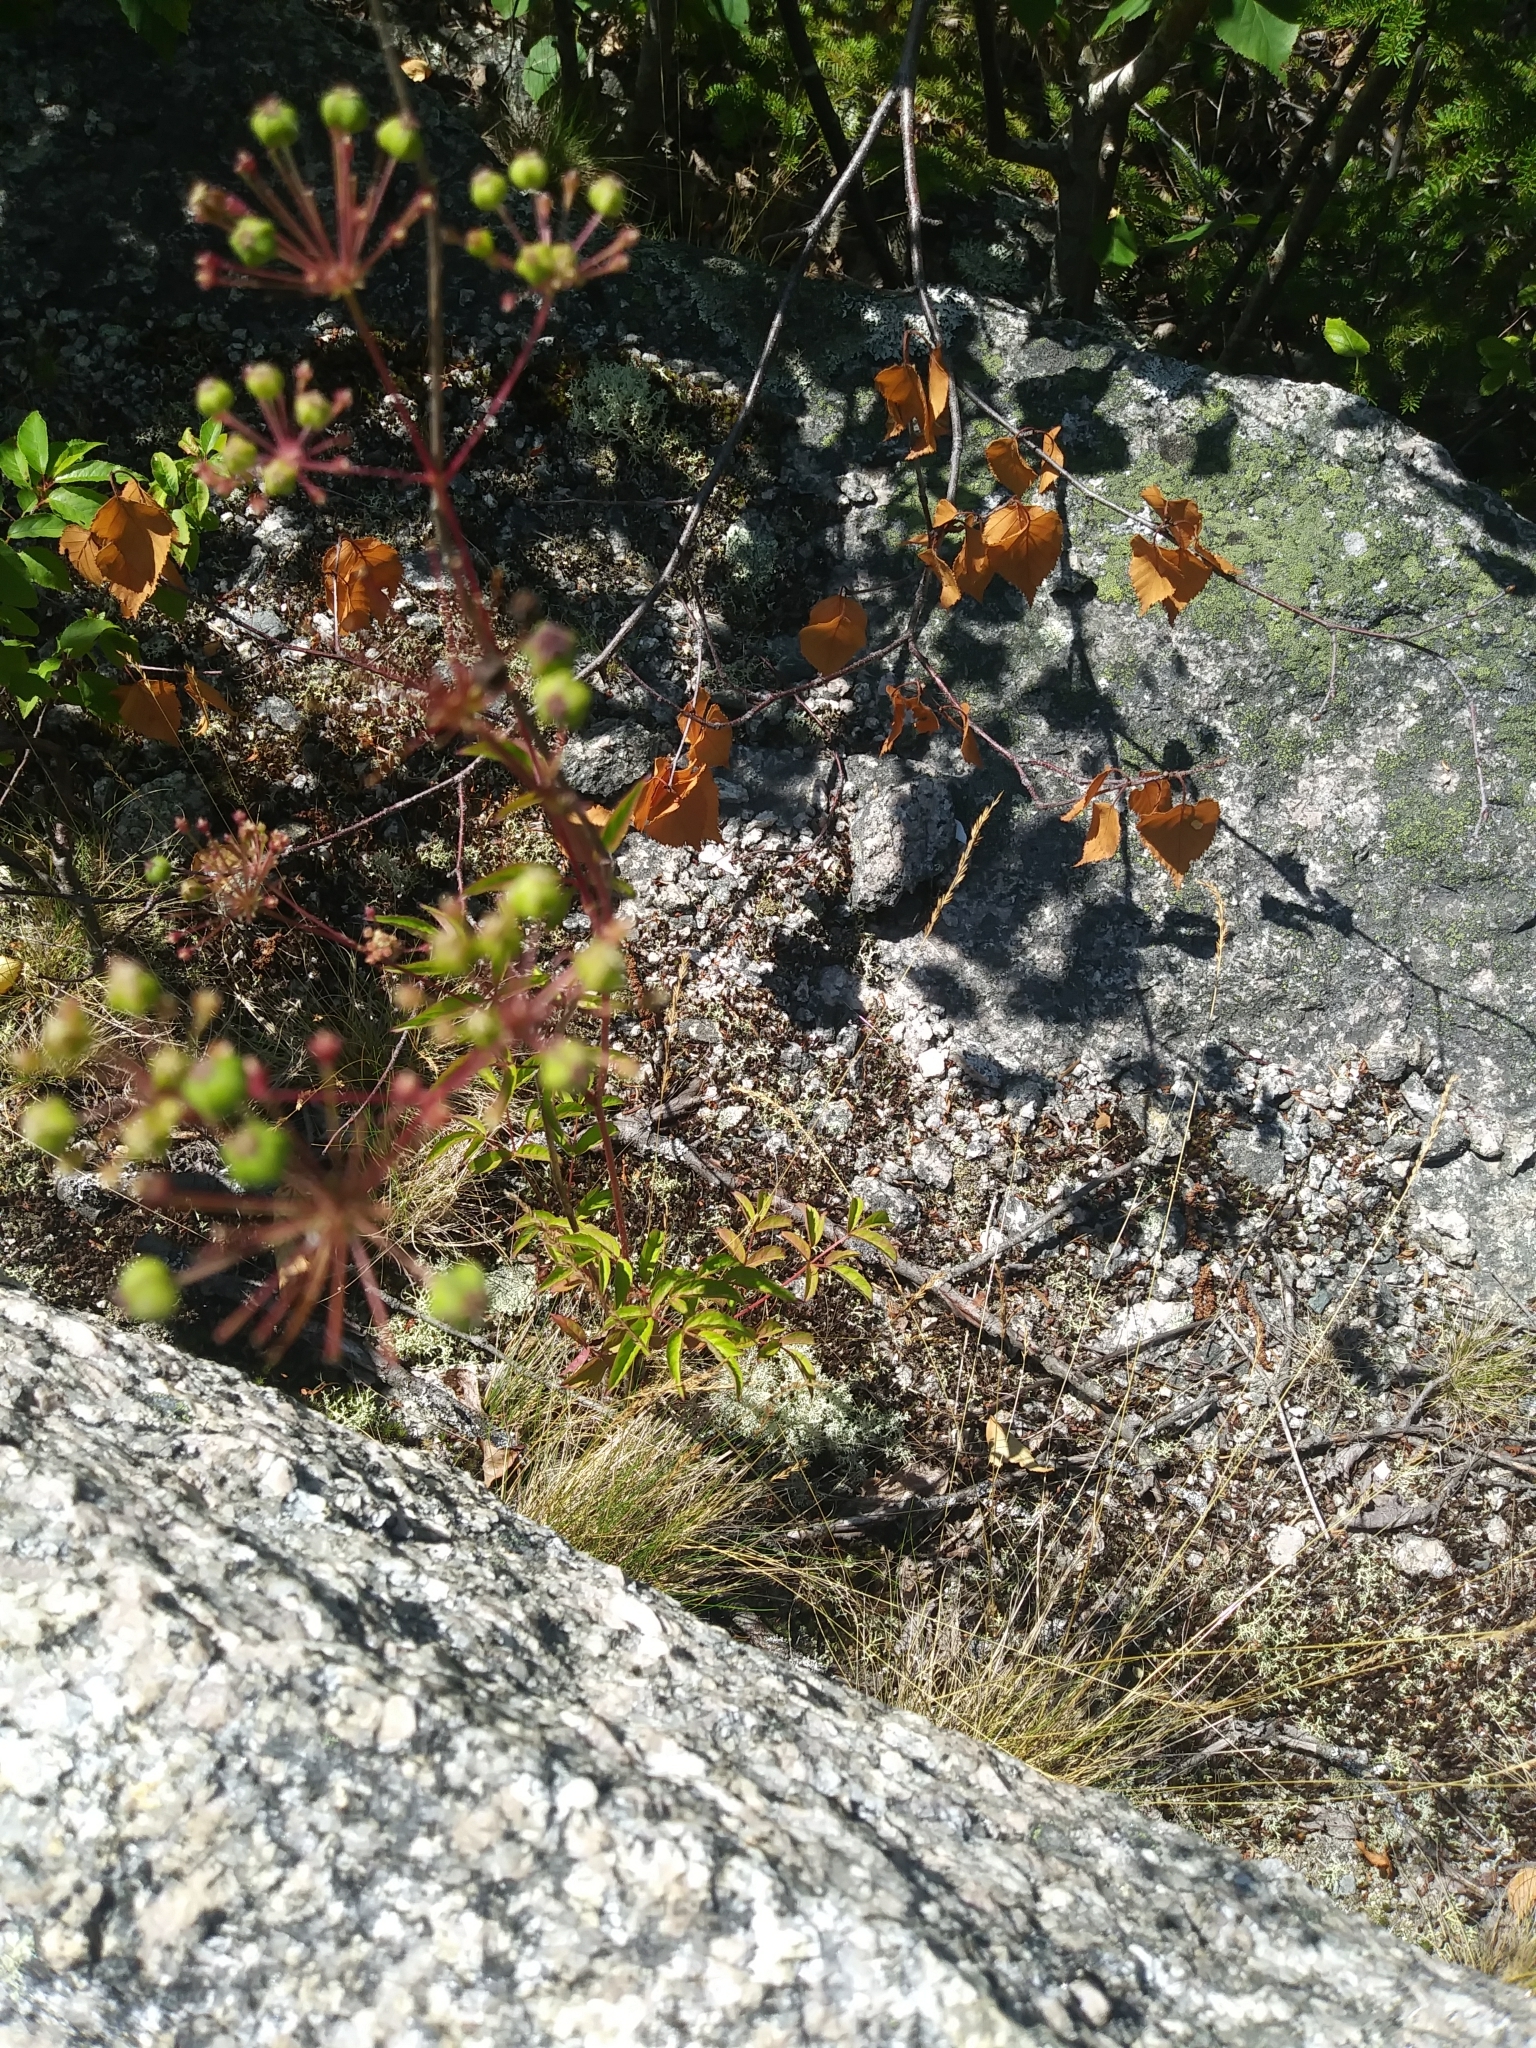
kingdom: Plantae
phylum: Tracheophyta
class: Magnoliopsida
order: Apiales
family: Araliaceae
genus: Aralia
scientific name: Aralia hispida
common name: Bristly sarsaparilla
